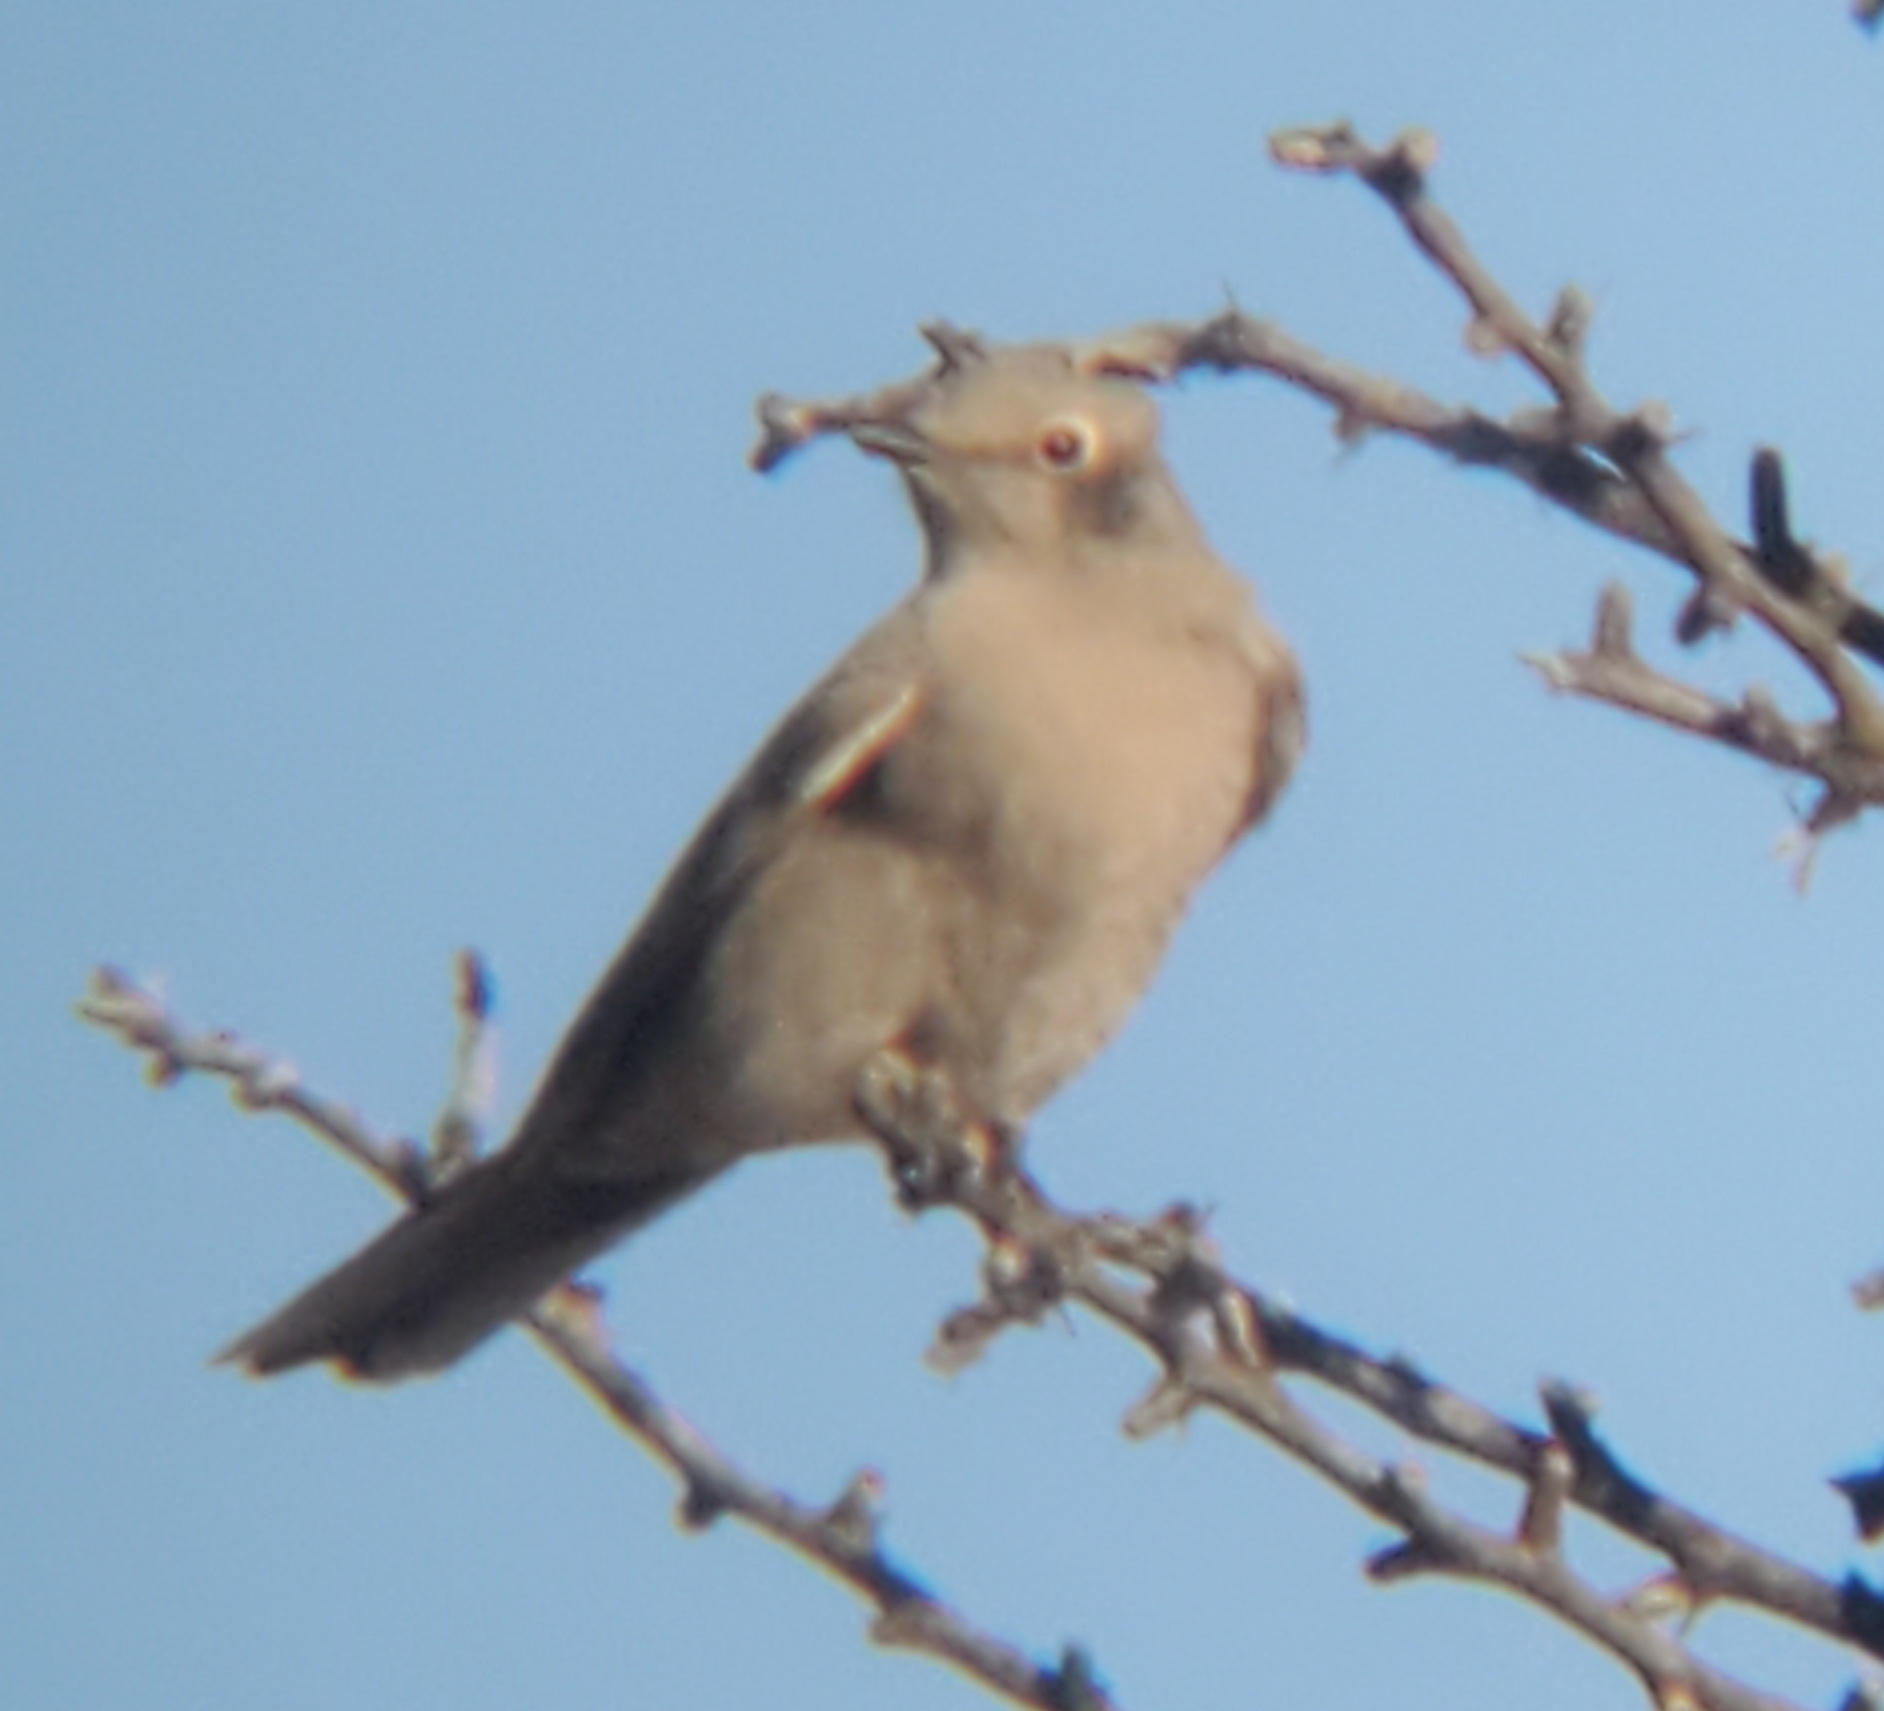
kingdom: Animalia
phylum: Chordata
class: Aves
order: Passeriformes
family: Turdidae
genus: Myadestes
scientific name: Myadestes townsendi
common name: Townsend's solitaire
